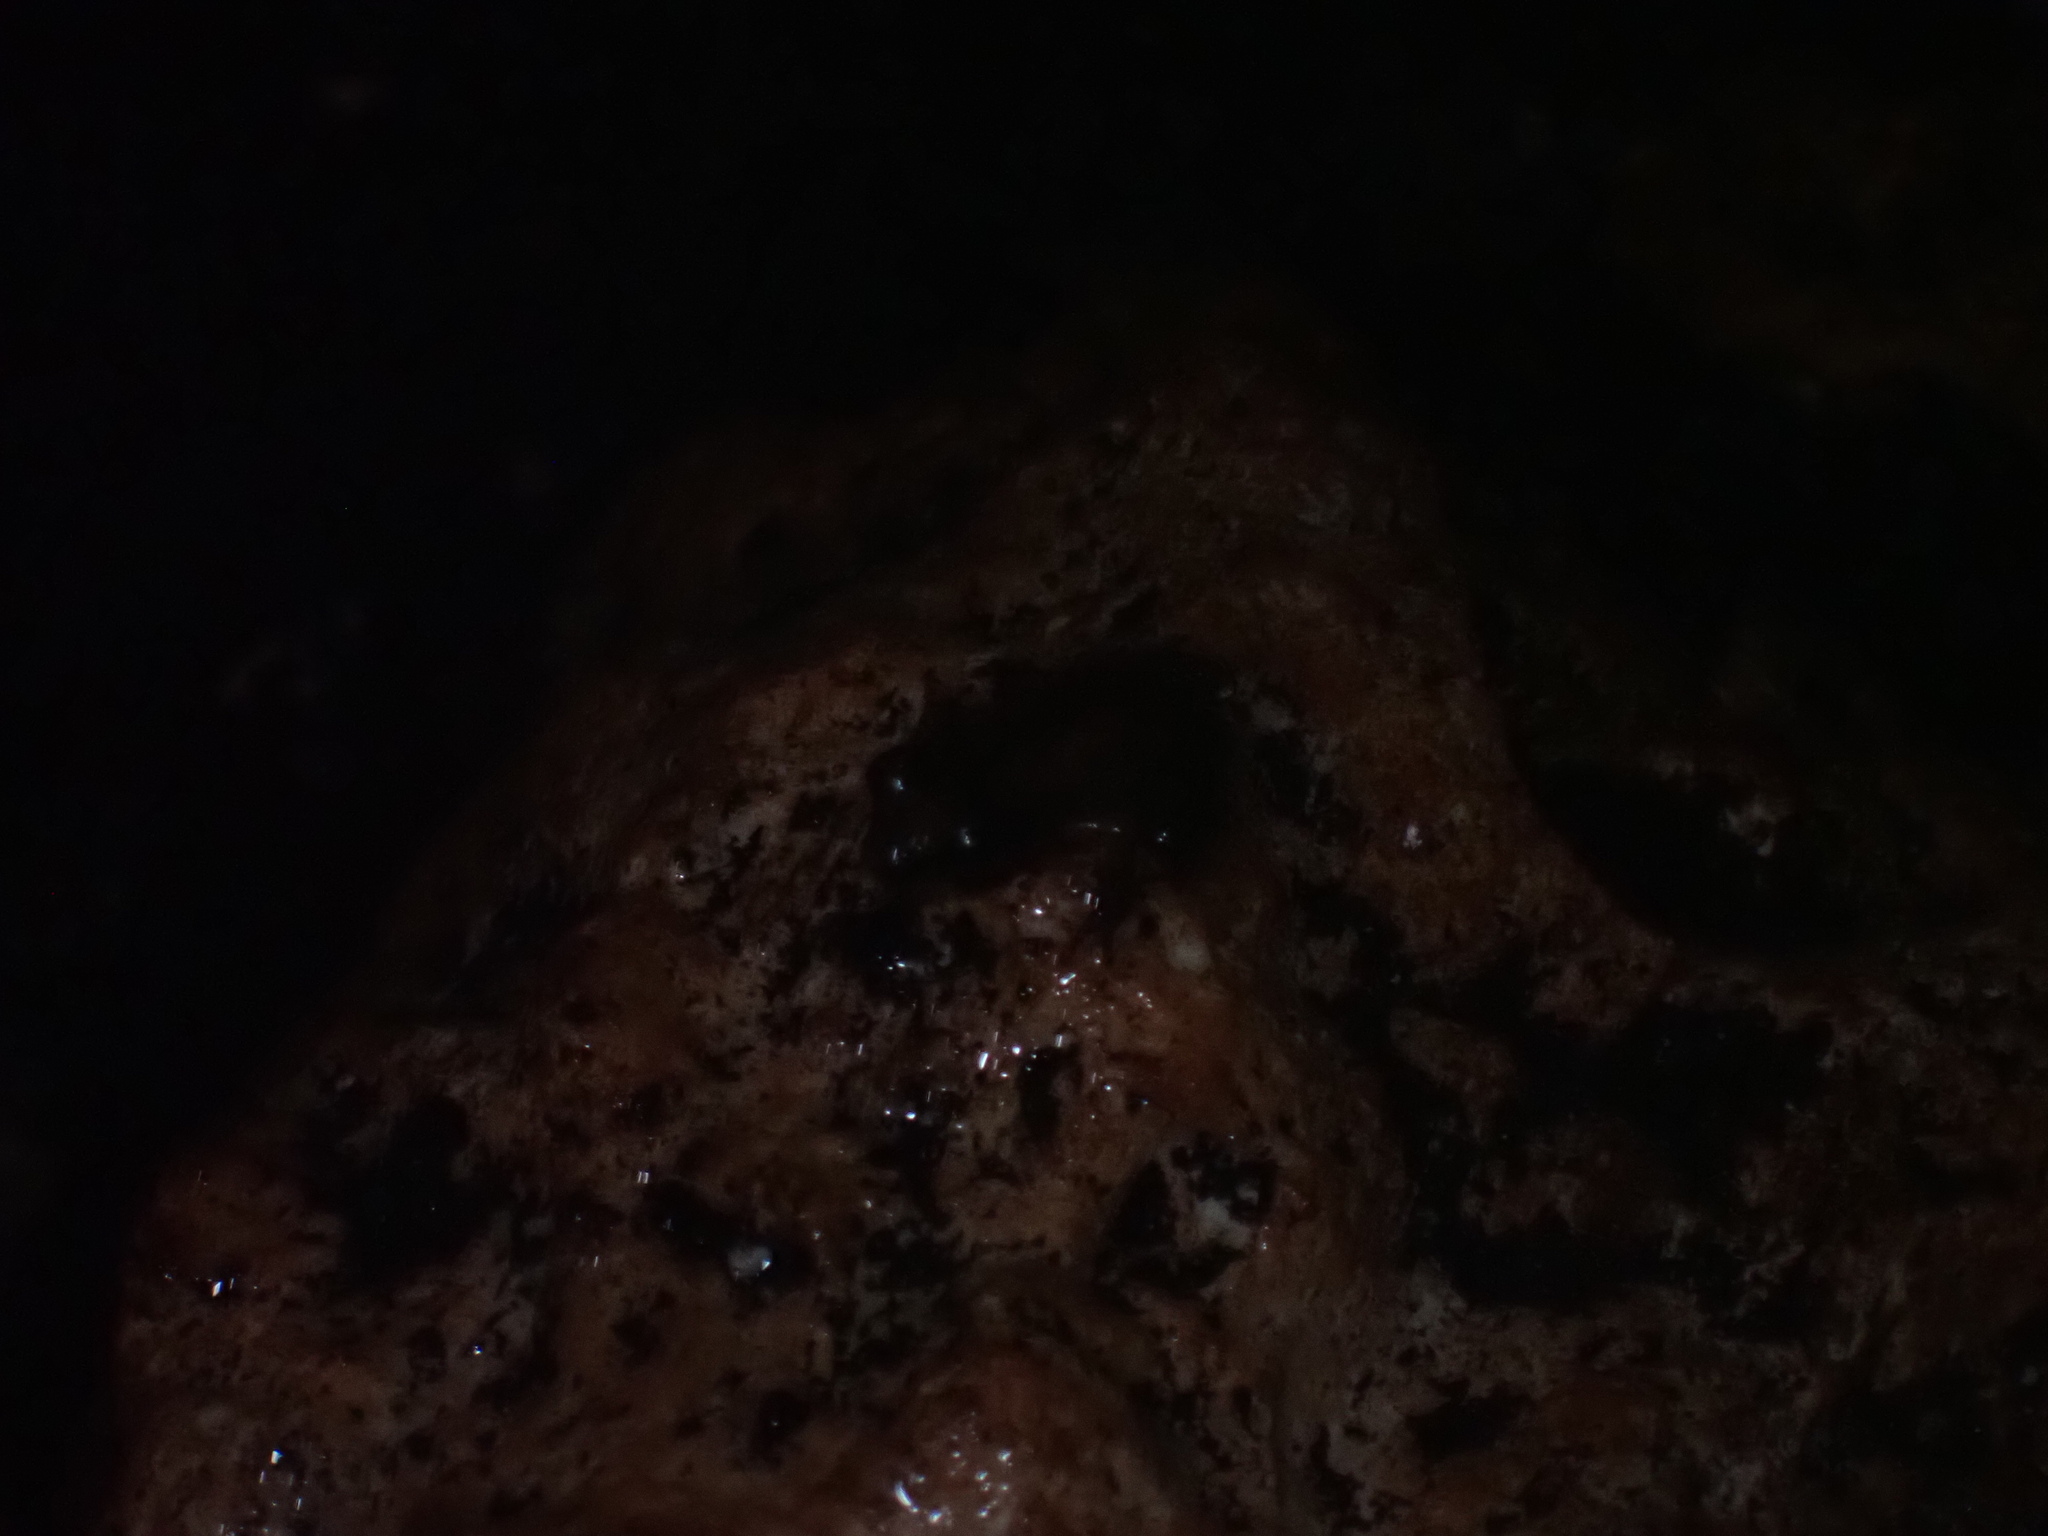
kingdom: Animalia
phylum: Chordata
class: Amphibia
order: Anura
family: Eleutherodactylidae
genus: Eleutherodactylus
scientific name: Eleutherodactylus planirostris
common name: Greenhouse frog
